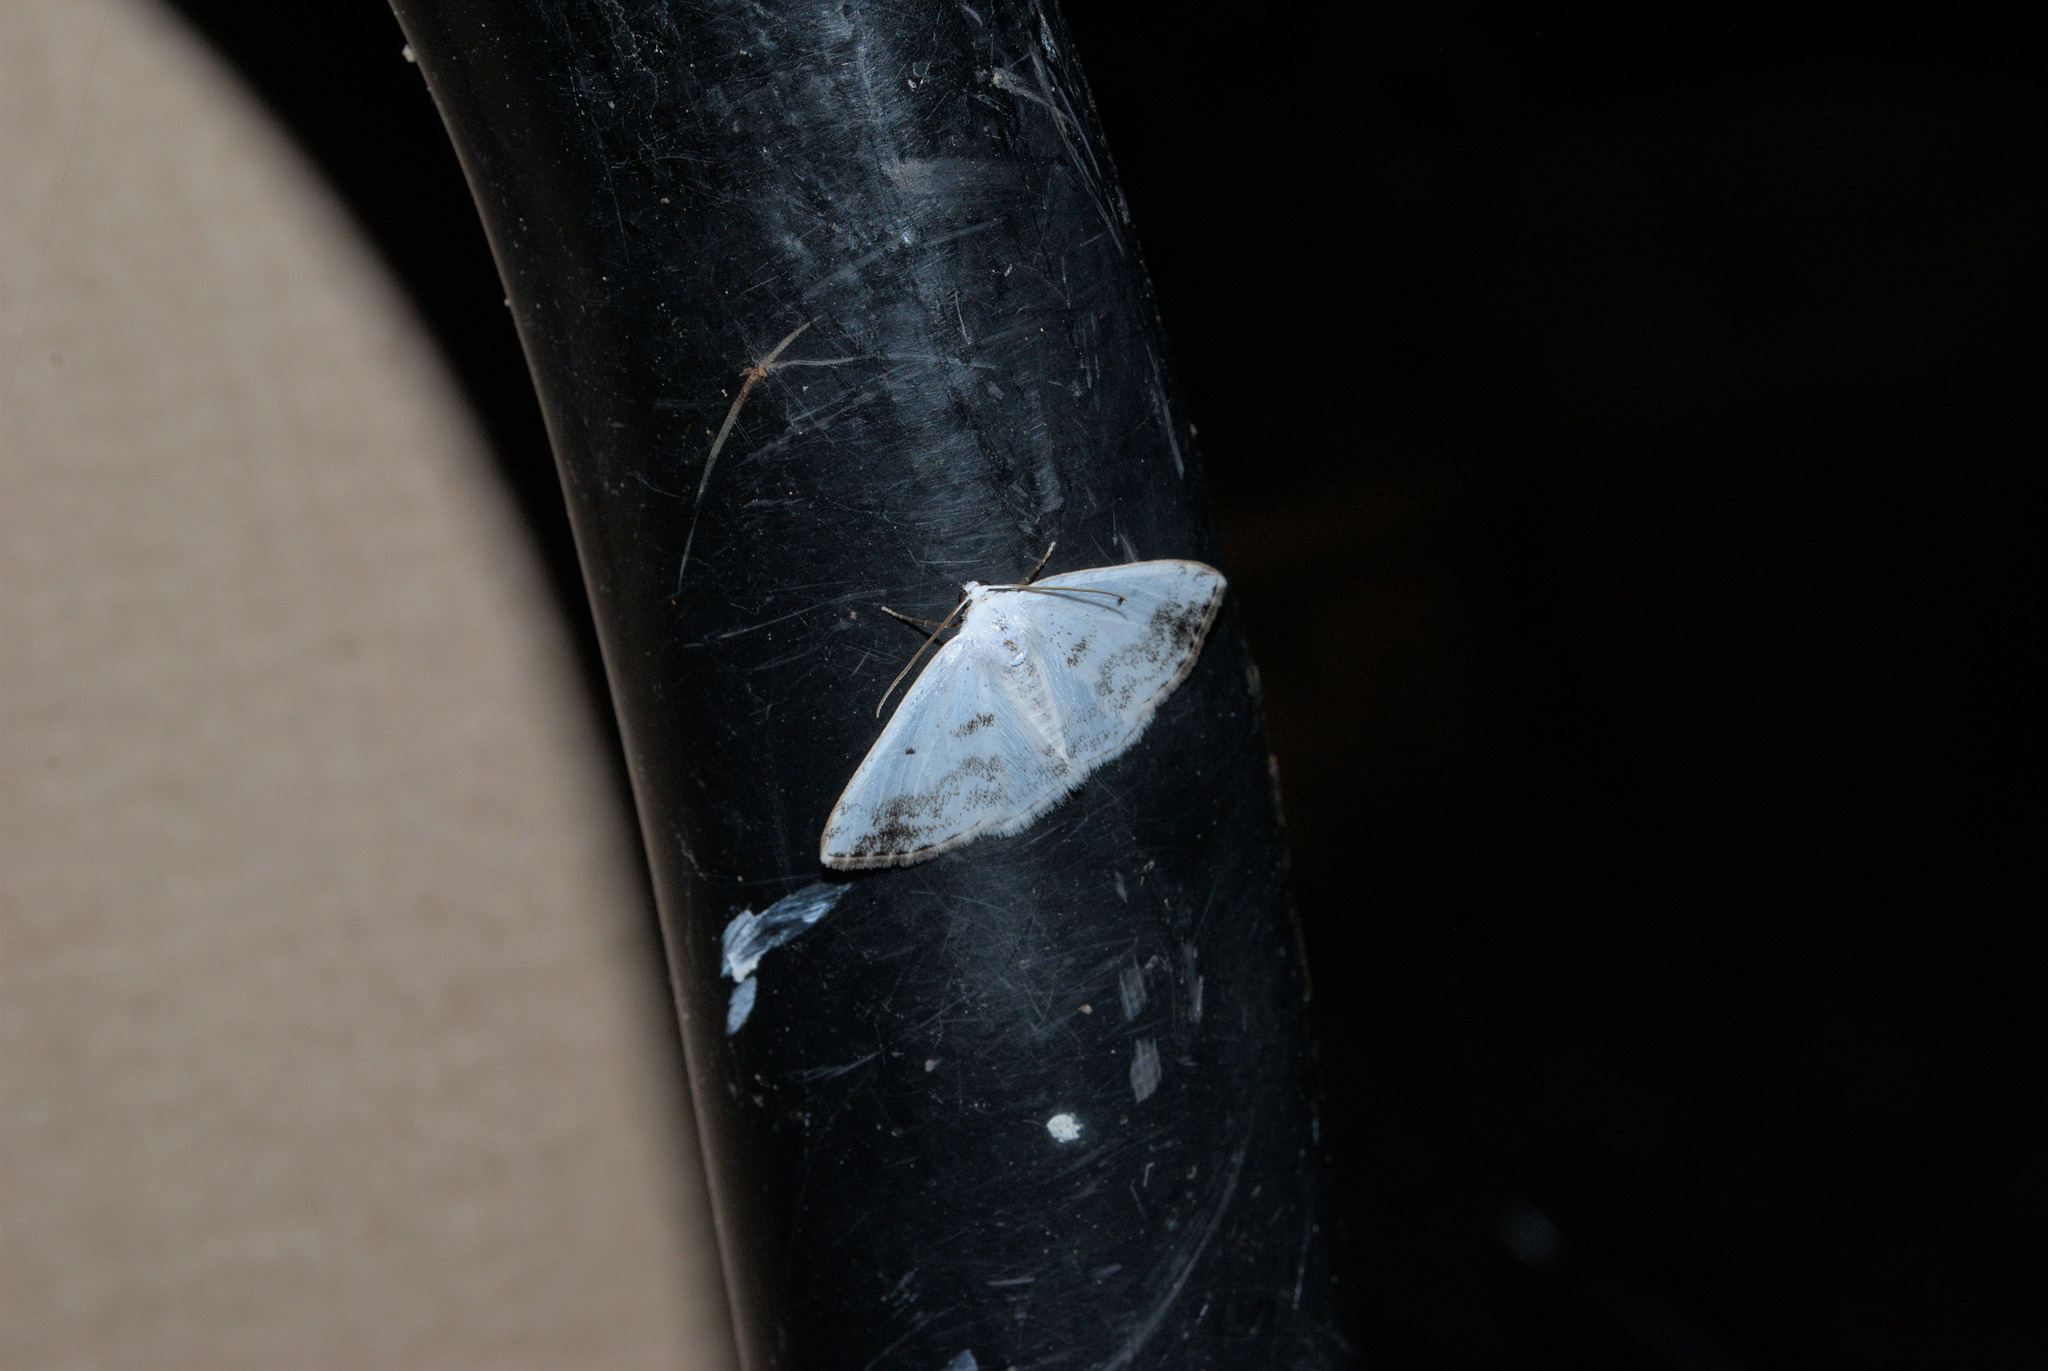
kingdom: Animalia
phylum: Arthropoda
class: Insecta
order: Lepidoptera
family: Geometridae
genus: Lomographa
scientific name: Lomographa temerata
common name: Clouded silver
